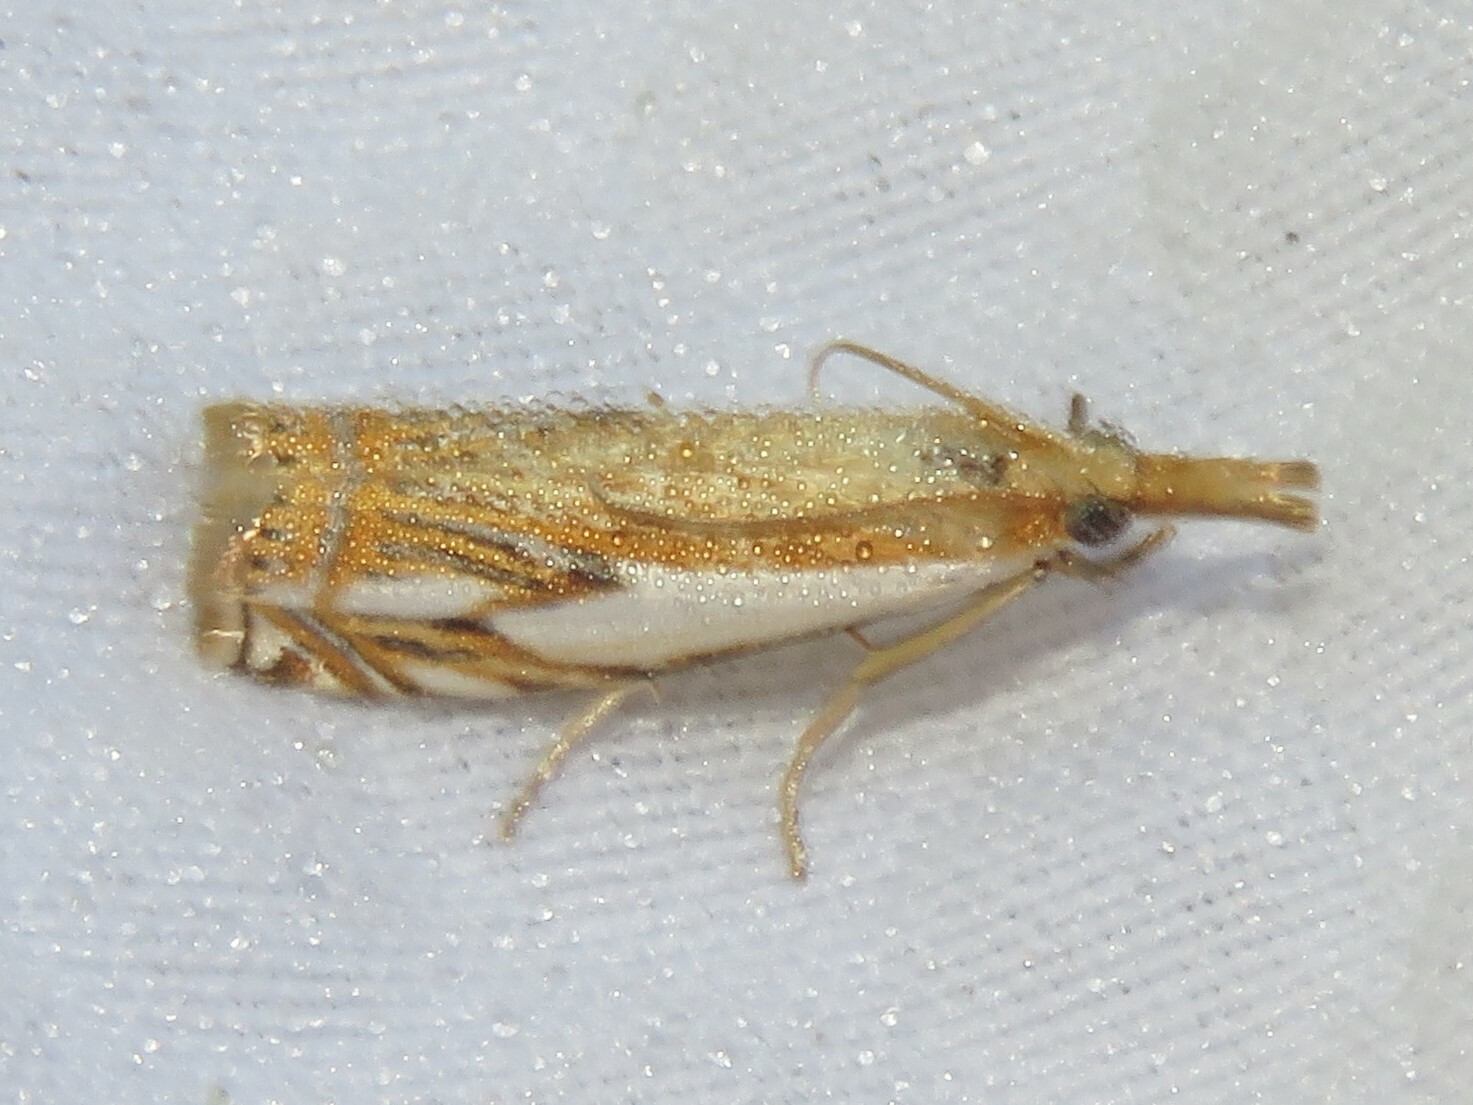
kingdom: Animalia
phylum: Arthropoda
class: Insecta
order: Lepidoptera
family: Crambidae
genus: Crambus
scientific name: Crambus agitatellus
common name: Double-banded grass-veneer
